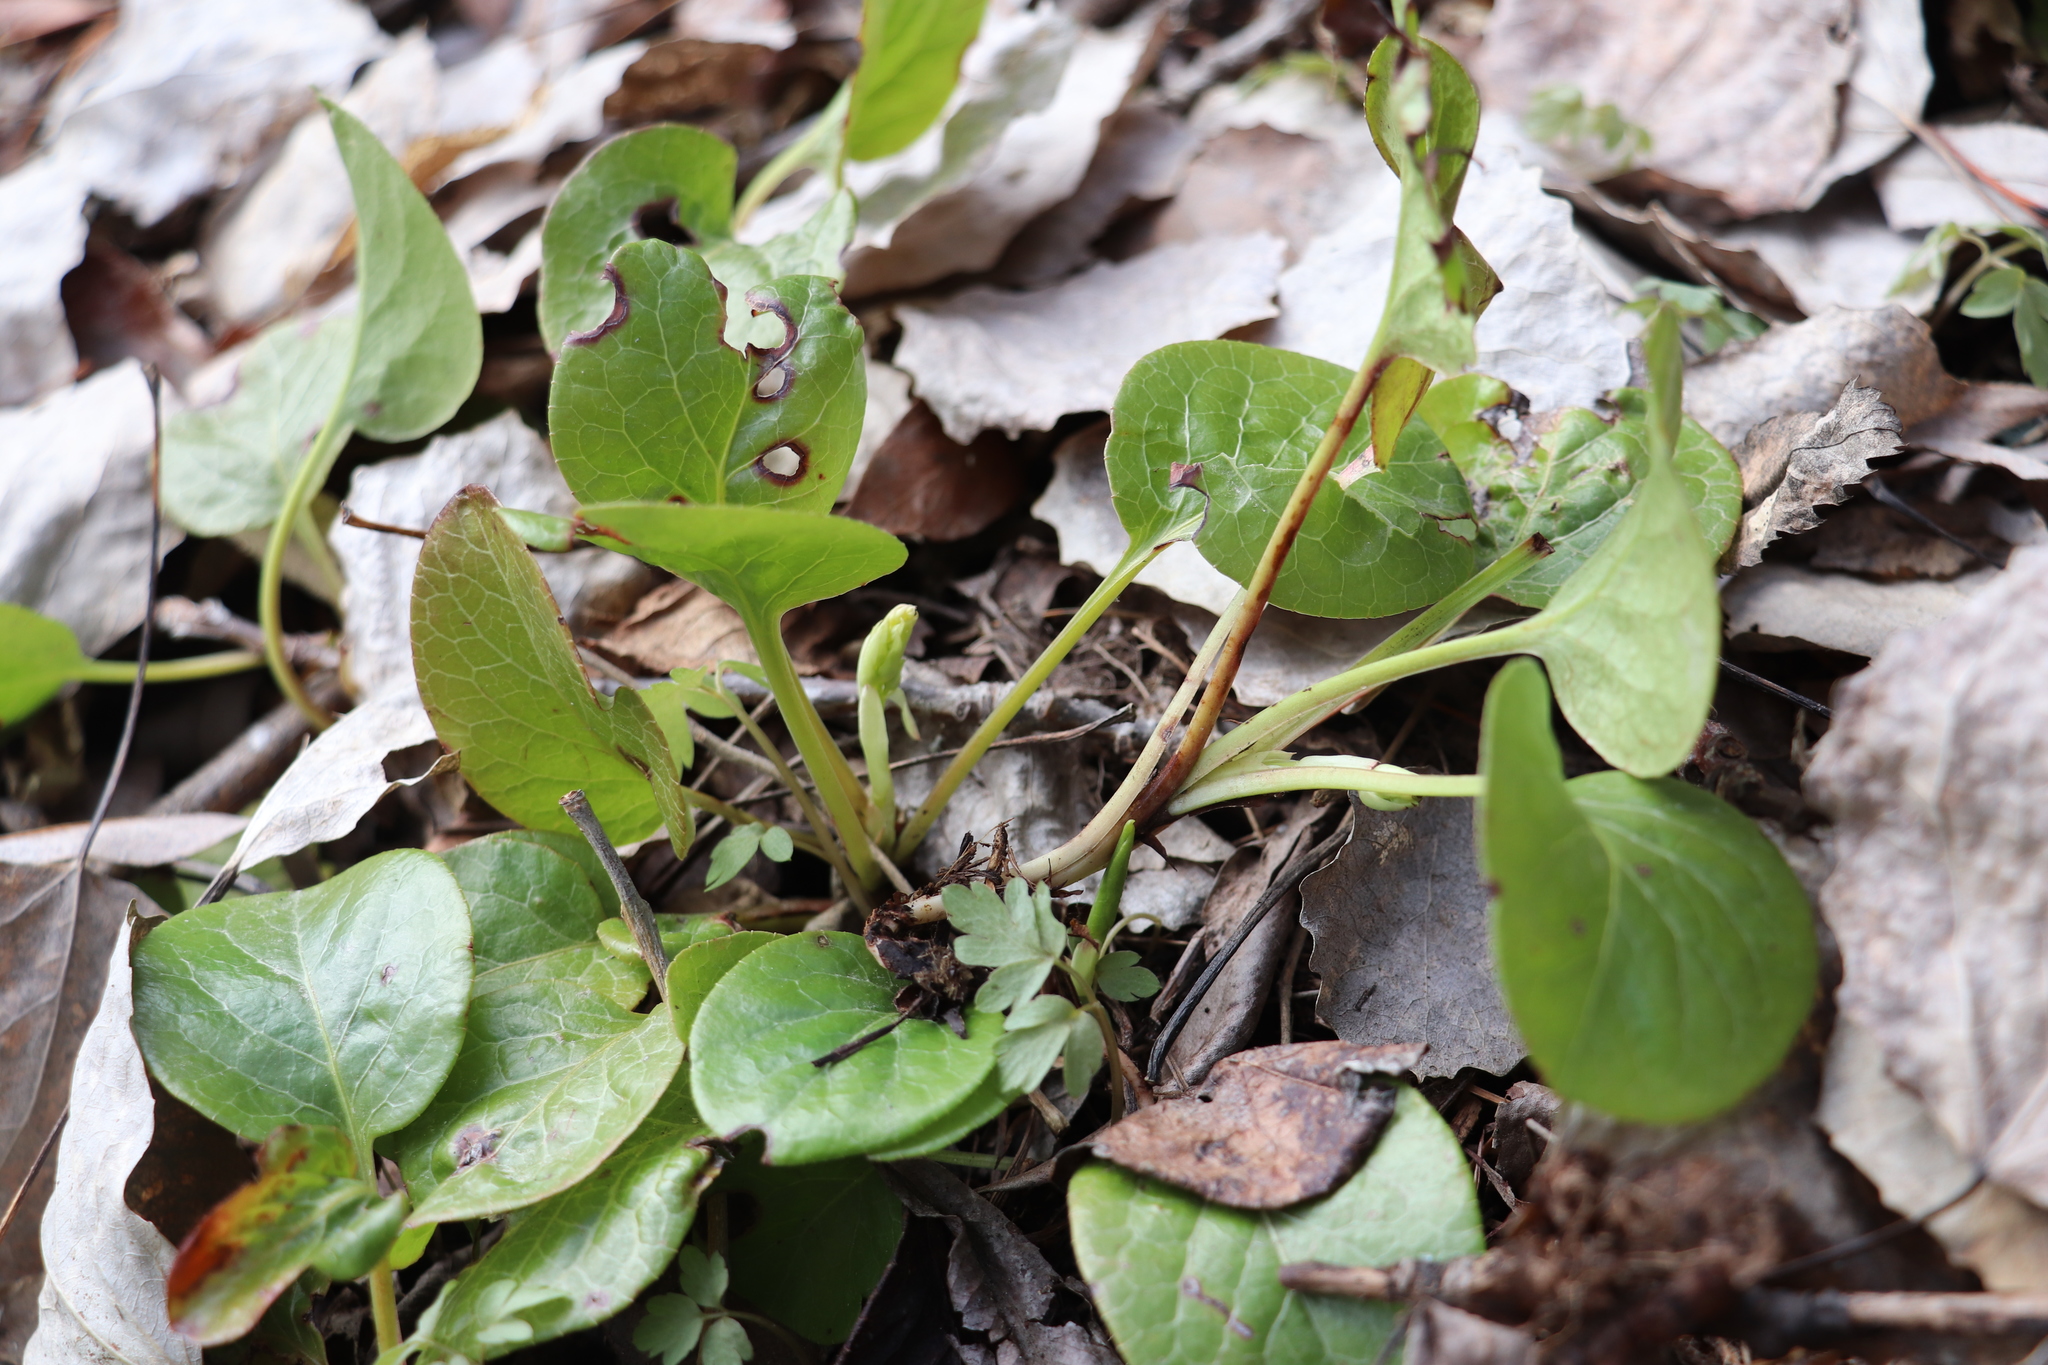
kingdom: Plantae
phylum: Tracheophyta
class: Magnoliopsida
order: Ericales
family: Ericaceae
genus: Pyrola
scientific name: Pyrola rotundifolia
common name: Round-leaved wintergreen
